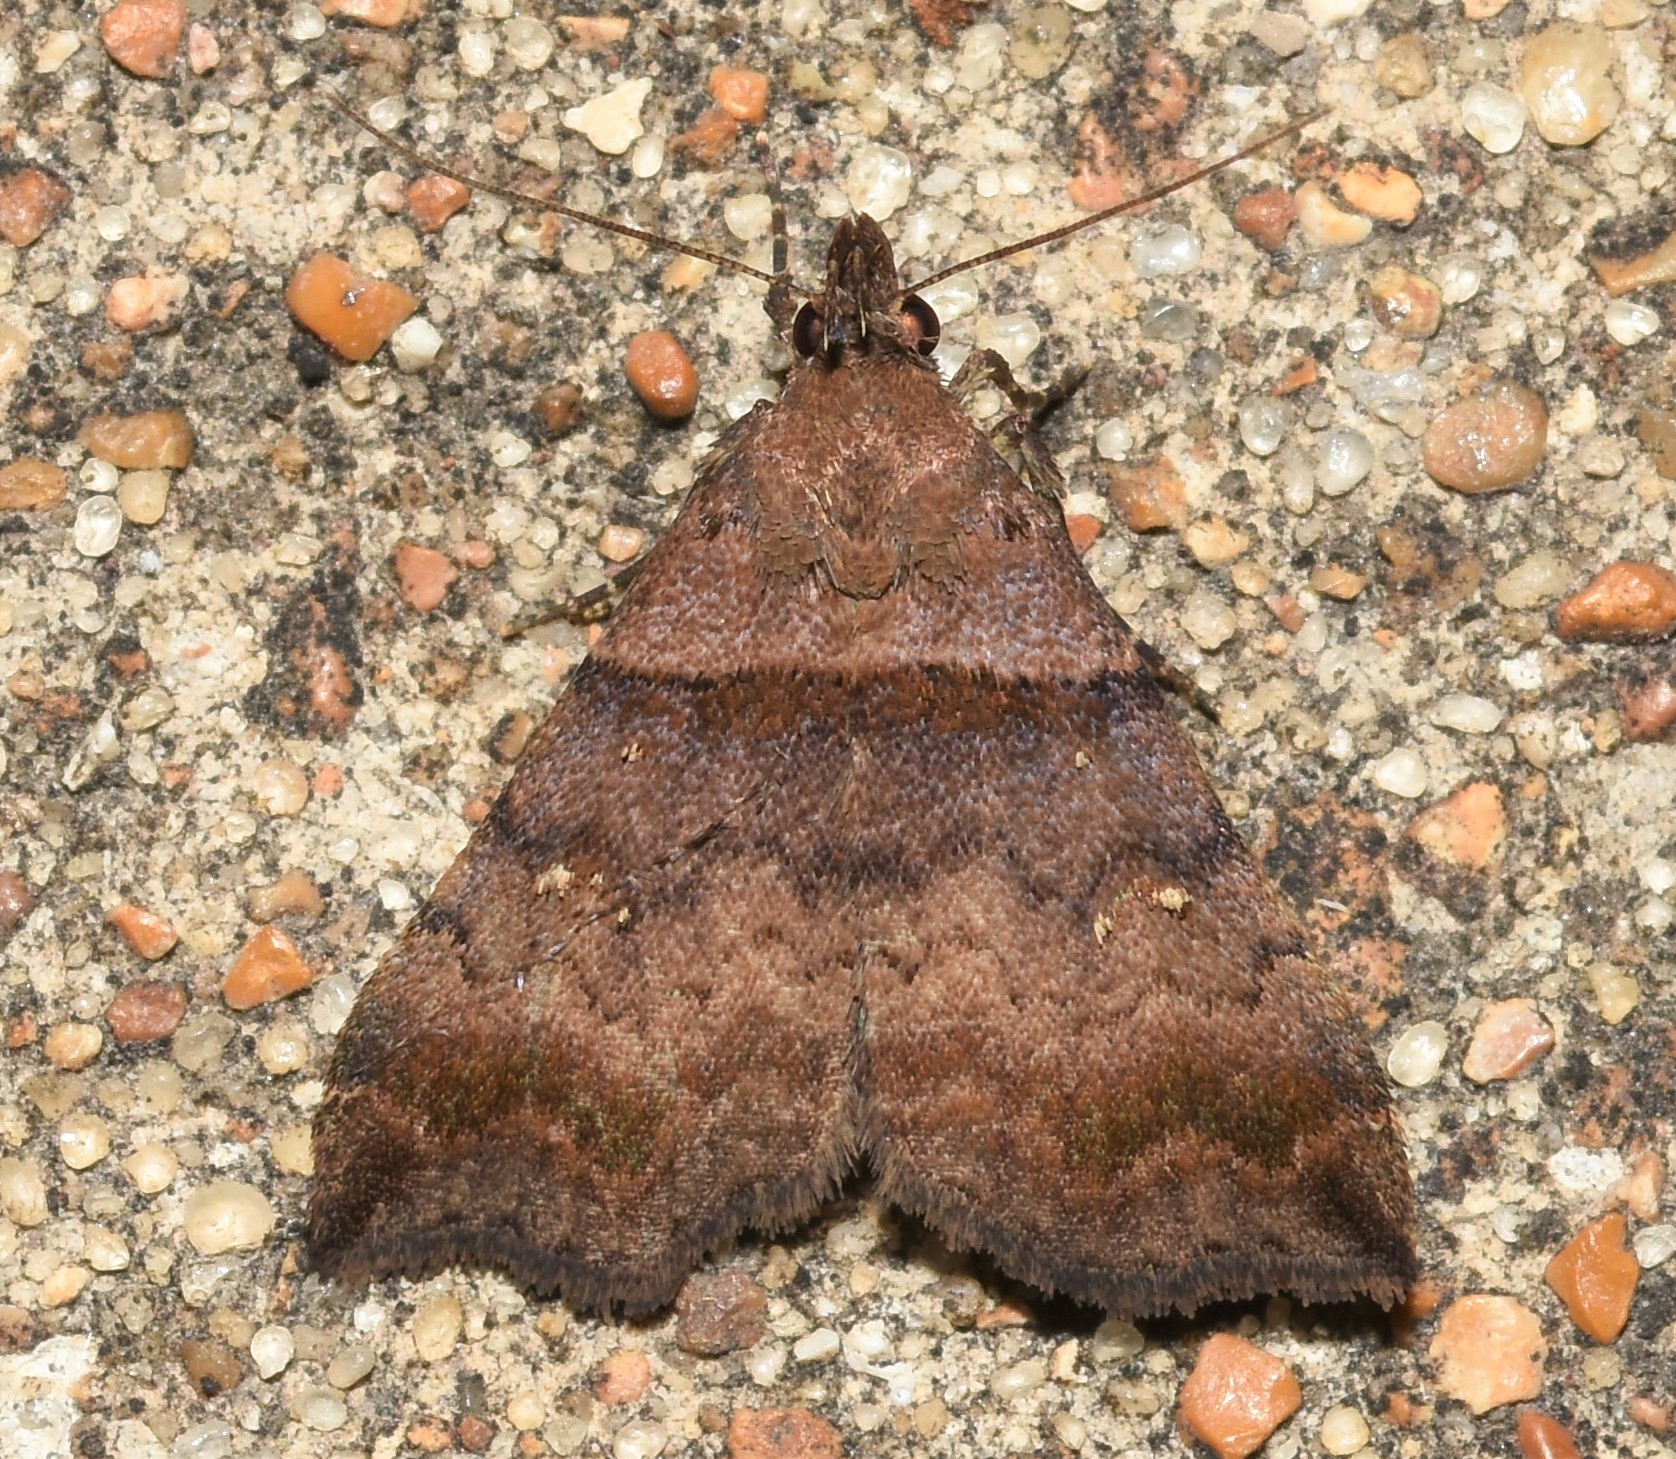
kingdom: Animalia
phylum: Arthropoda
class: Insecta
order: Lepidoptera
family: Erebidae
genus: Lascoria
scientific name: Lascoria ambigualis
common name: Ambiguous moth
